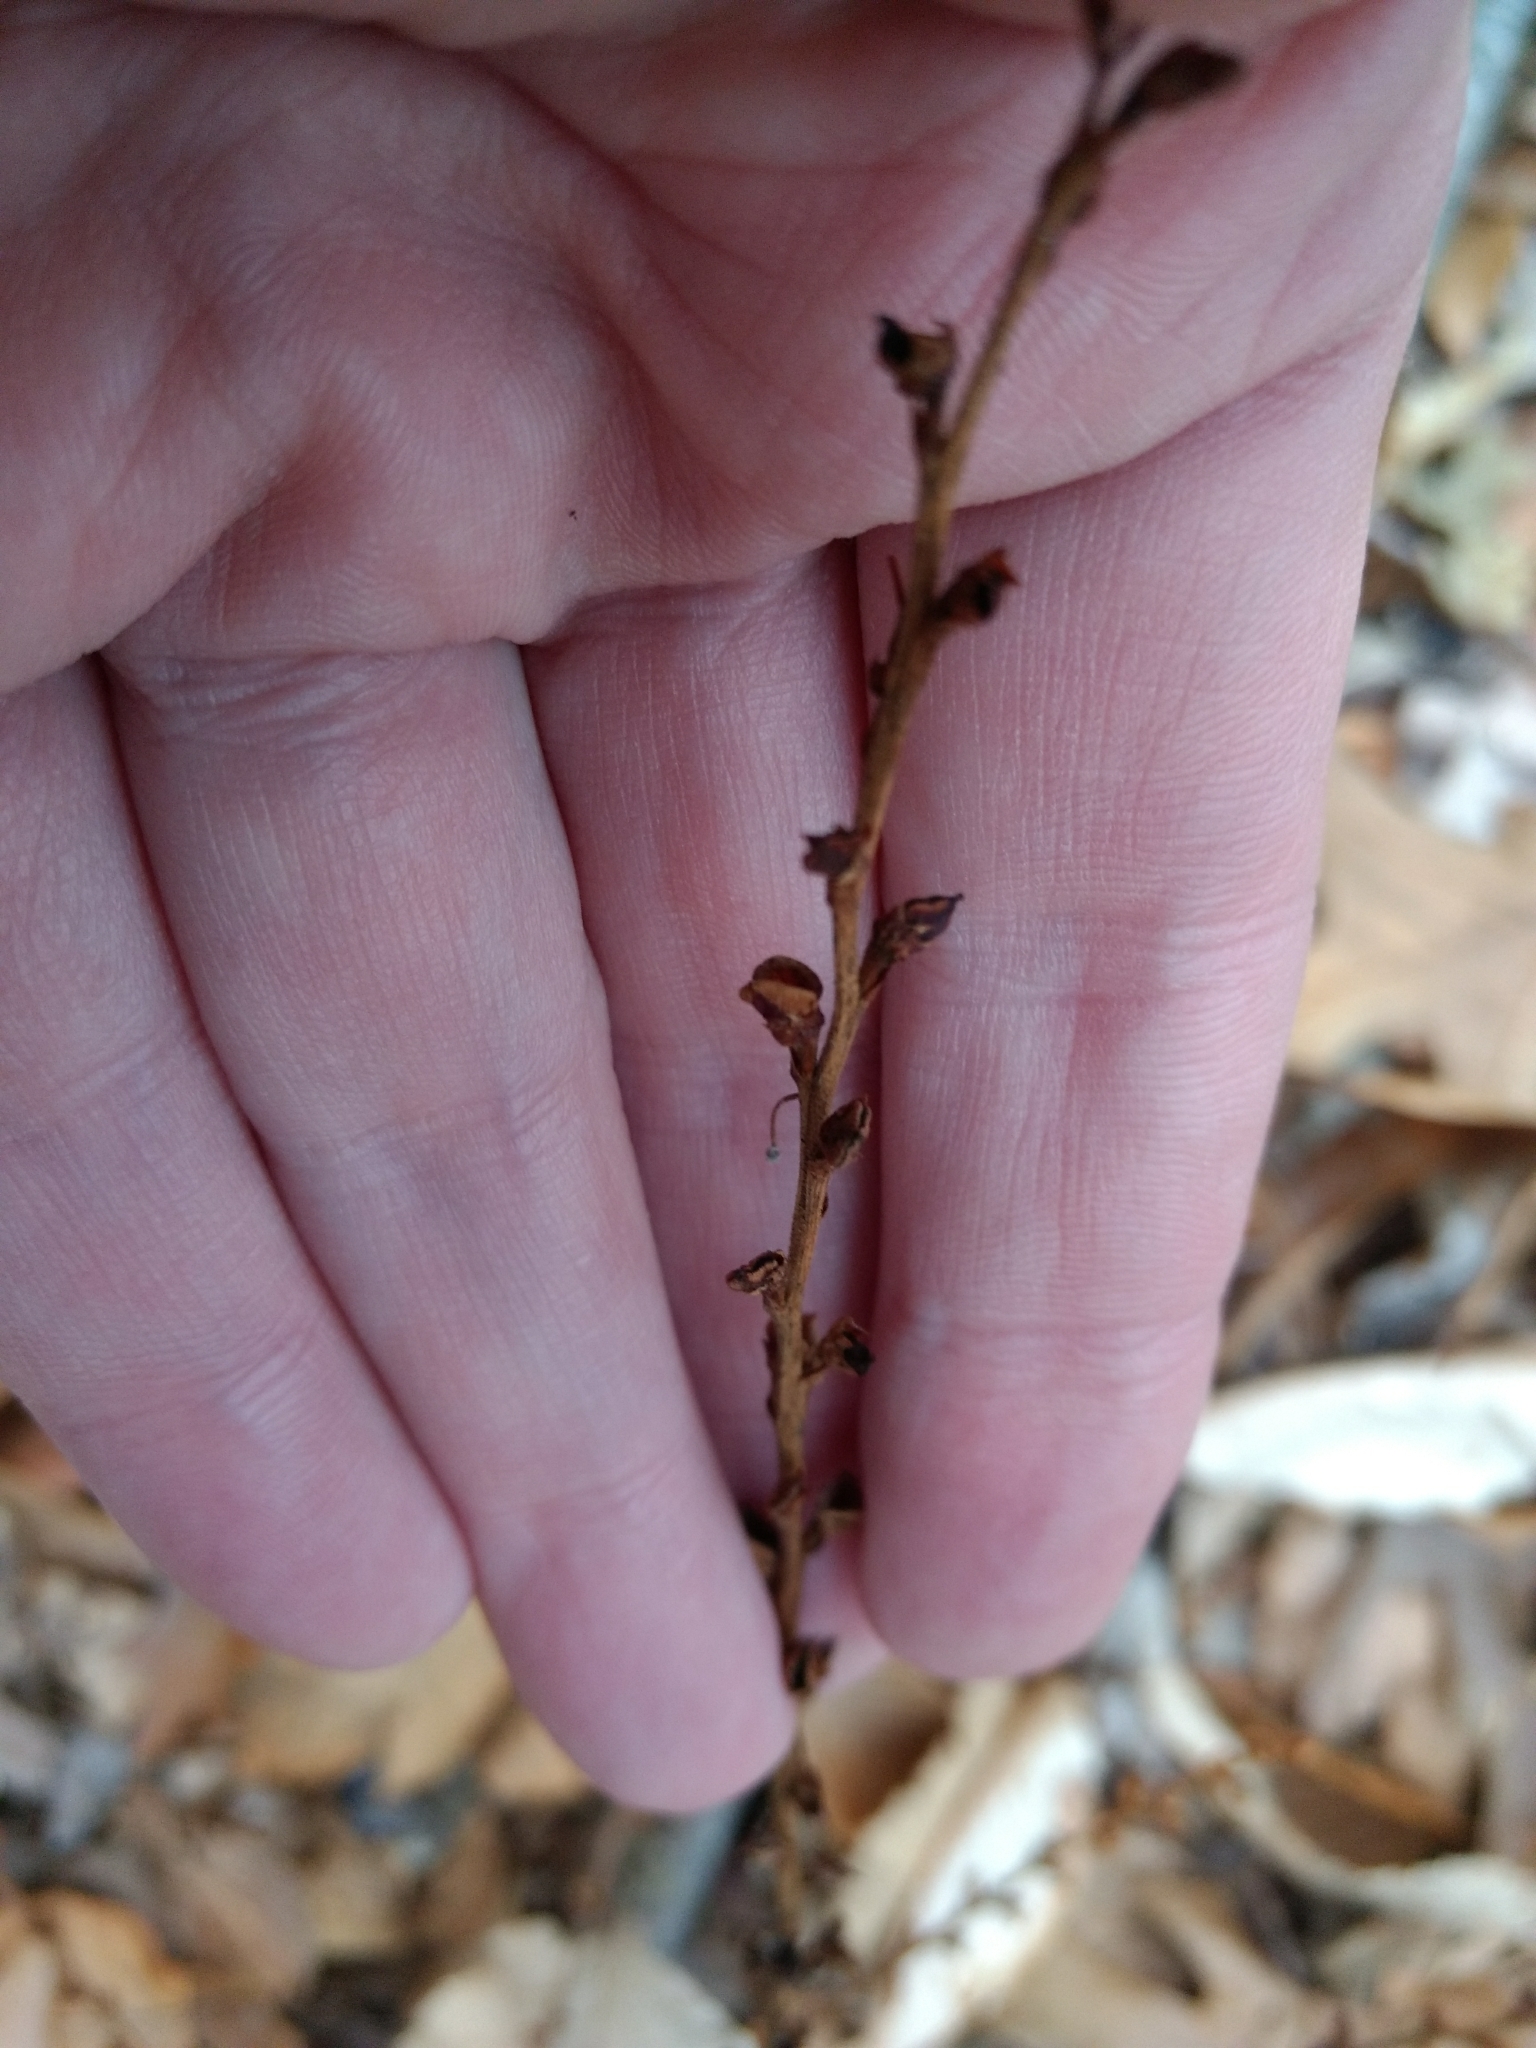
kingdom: Plantae
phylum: Tracheophyta
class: Magnoliopsida
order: Lamiales
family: Orobanchaceae
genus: Epifagus
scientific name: Epifagus virginiana
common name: Beechdrops
